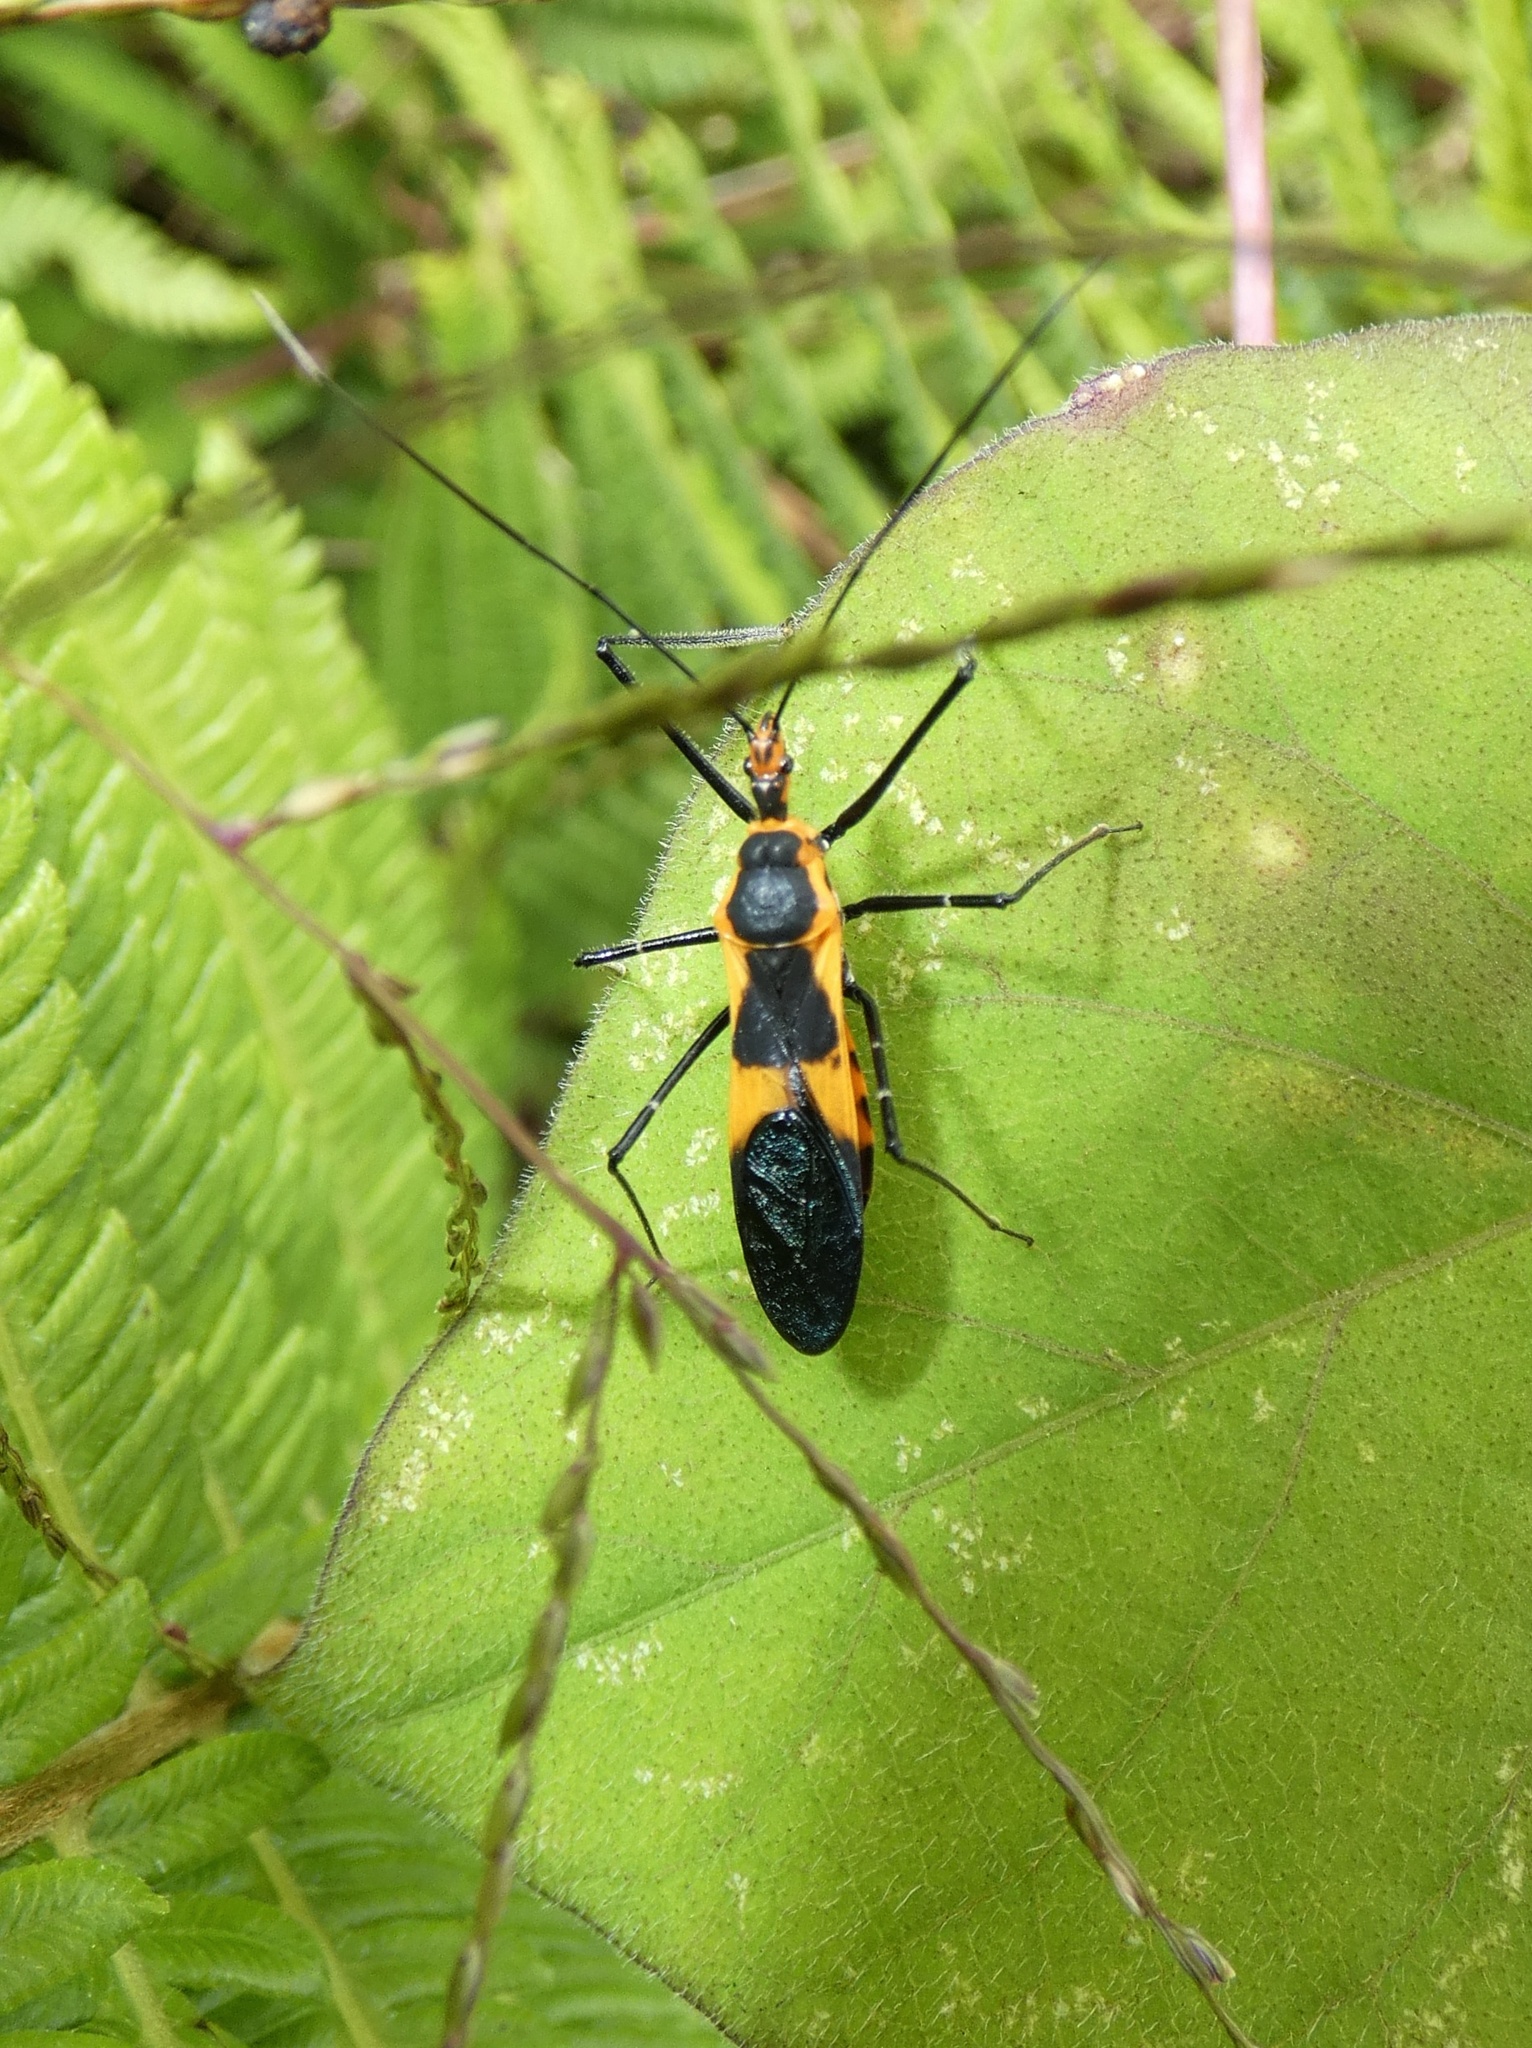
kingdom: Animalia
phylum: Arthropoda
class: Insecta
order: Hemiptera
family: Reduviidae
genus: Zelus
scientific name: Zelus longipes
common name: Milkweed assassin bug
